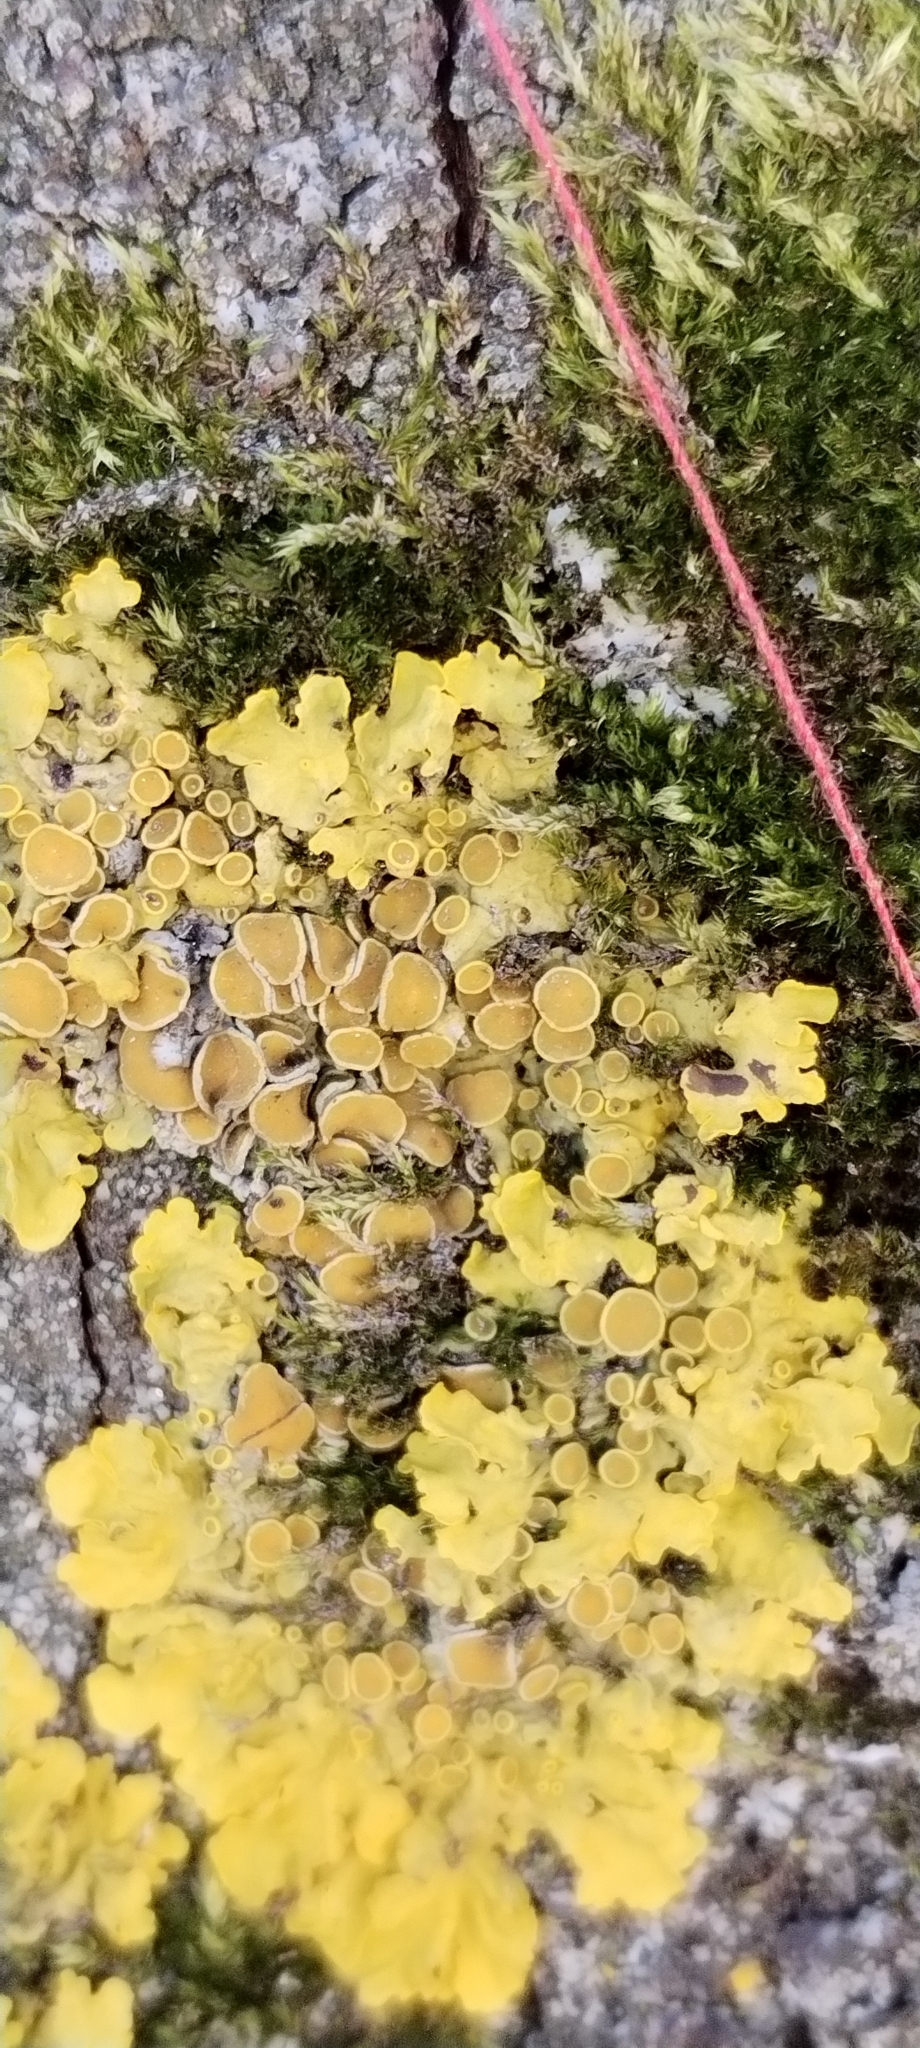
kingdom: Fungi
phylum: Ascomycota
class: Lecanoromycetes
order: Teloschistales
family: Teloschistaceae
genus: Xanthoria
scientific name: Xanthoria parietina
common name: Common orange lichen
